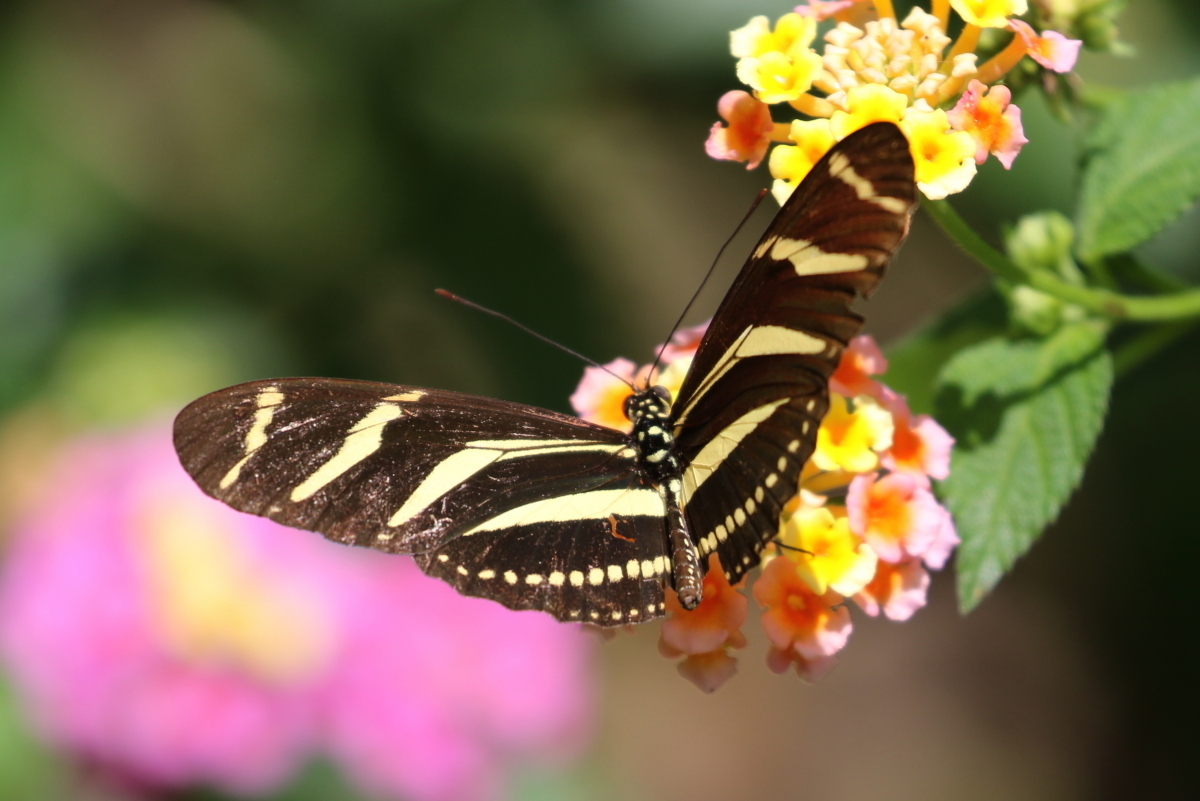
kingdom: Animalia
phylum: Arthropoda
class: Insecta
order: Lepidoptera
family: Nymphalidae
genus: Heliconius
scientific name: Heliconius charithonia
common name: Zebra long wing
